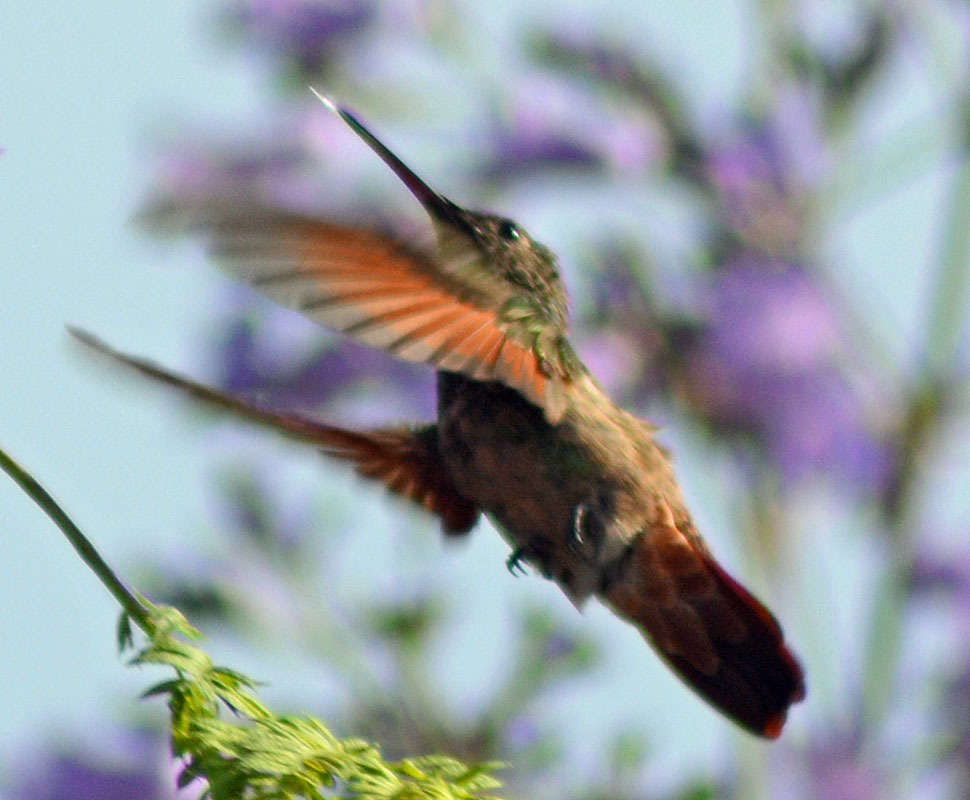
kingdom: Animalia
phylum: Chordata
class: Aves
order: Apodiformes
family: Trochilidae
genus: Saucerottia
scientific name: Saucerottia beryllina
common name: Berylline hummingbird
